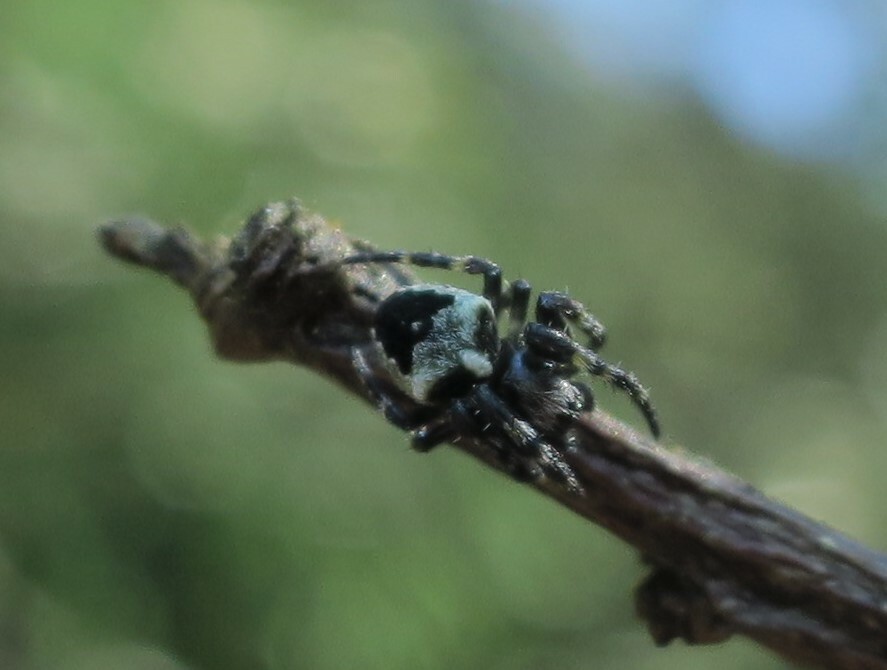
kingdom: Animalia
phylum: Arthropoda
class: Arachnida
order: Araneae
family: Araneidae
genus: Courtaraneus
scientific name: Courtaraneus orientalis
